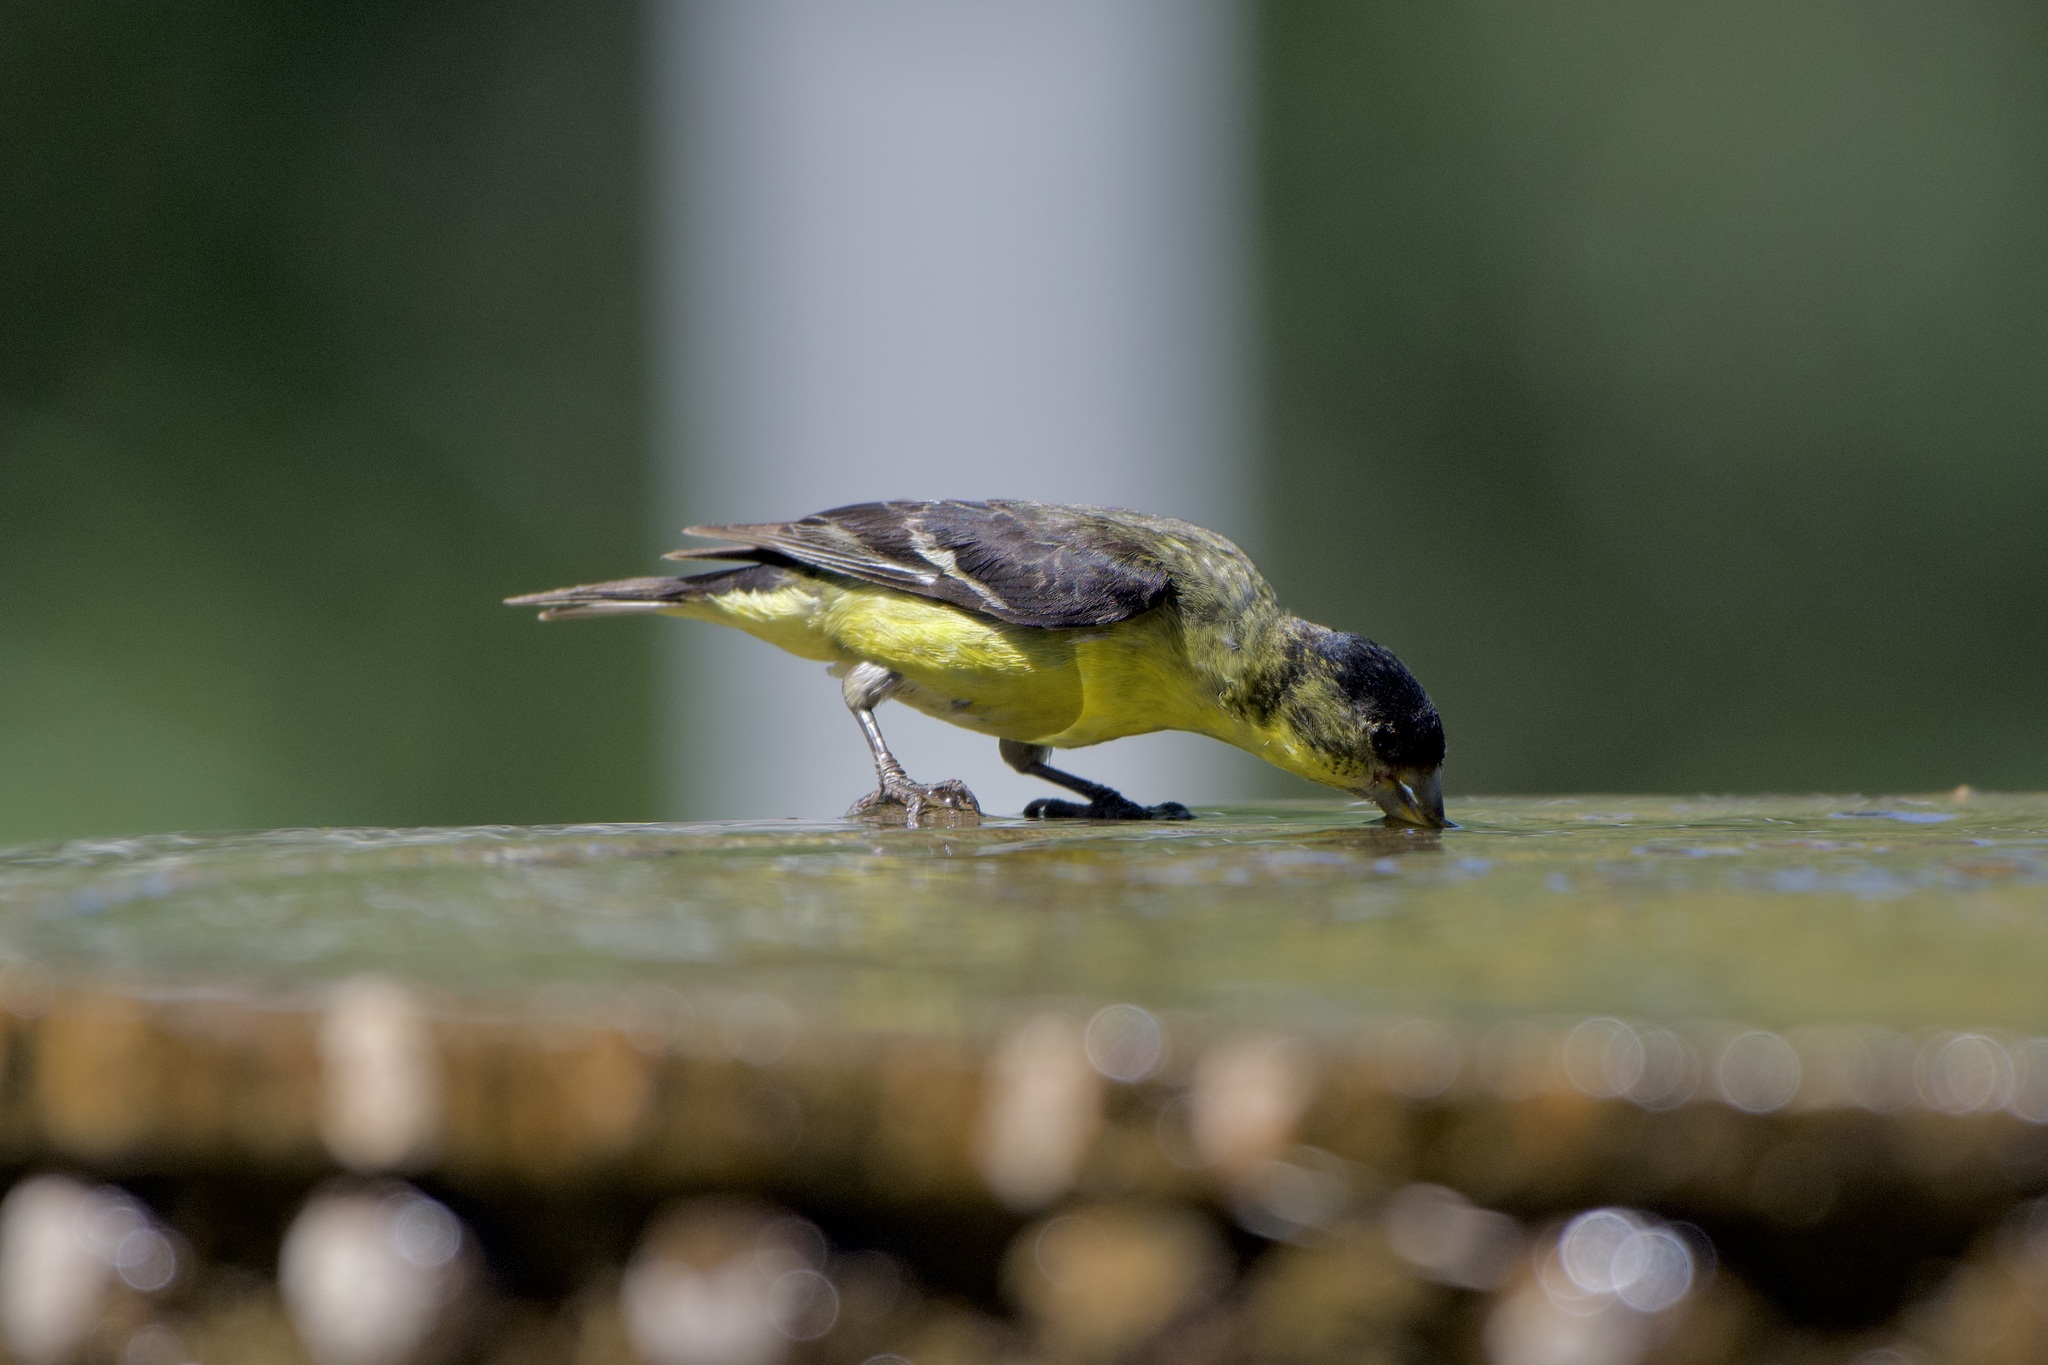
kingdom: Animalia
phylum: Chordata
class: Aves
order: Passeriformes
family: Fringillidae
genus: Spinus
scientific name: Spinus psaltria
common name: Lesser goldfinch
